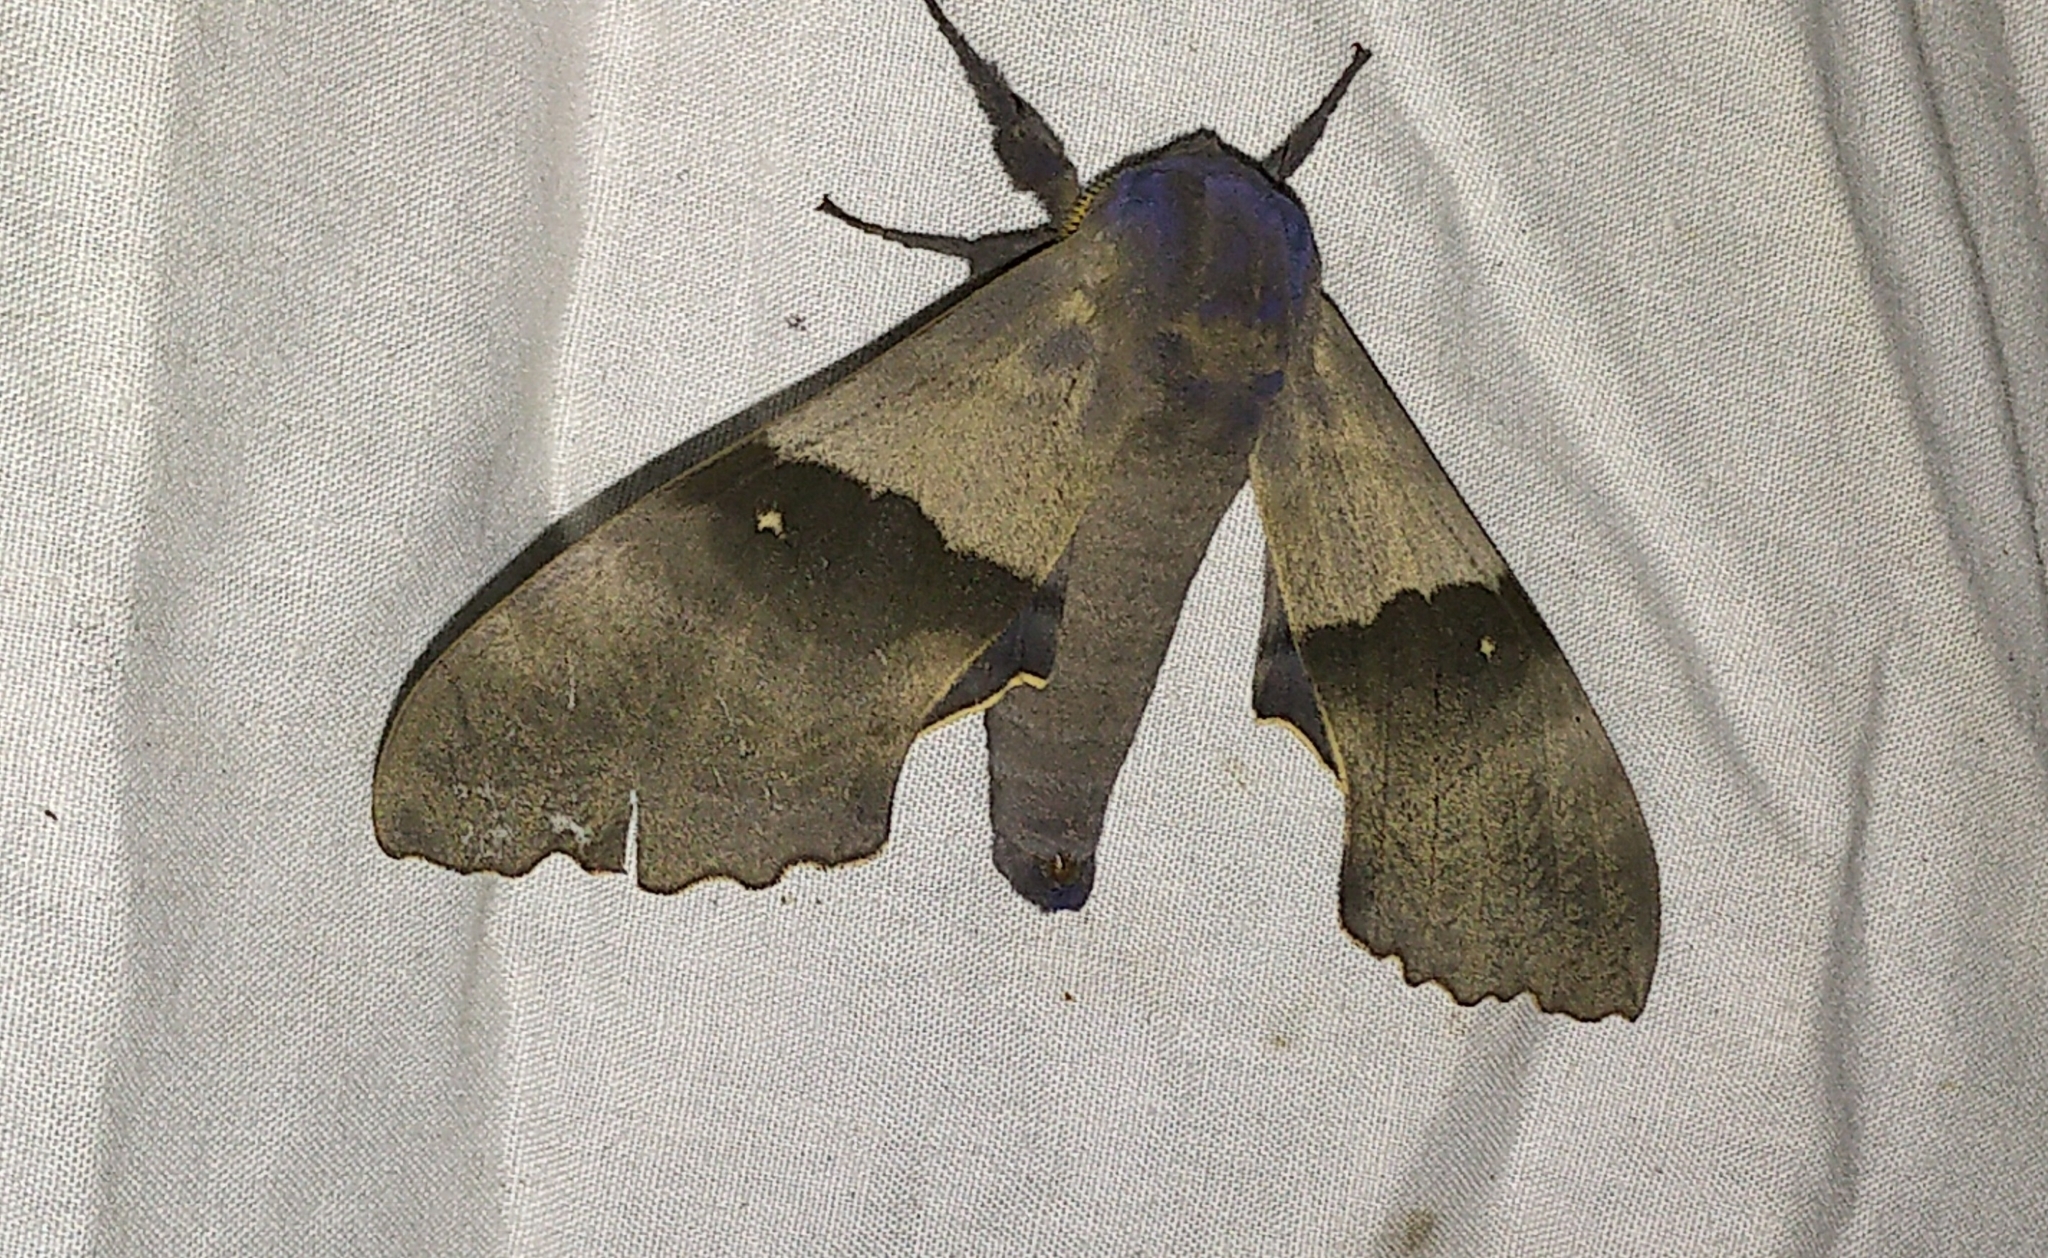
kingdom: Animalia
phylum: Arthropoda
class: Insecta
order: Lepidoptera
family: Sphingidae
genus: Pachysphinx
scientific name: Pachysphinx modesta
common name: Big poplar sphinx
